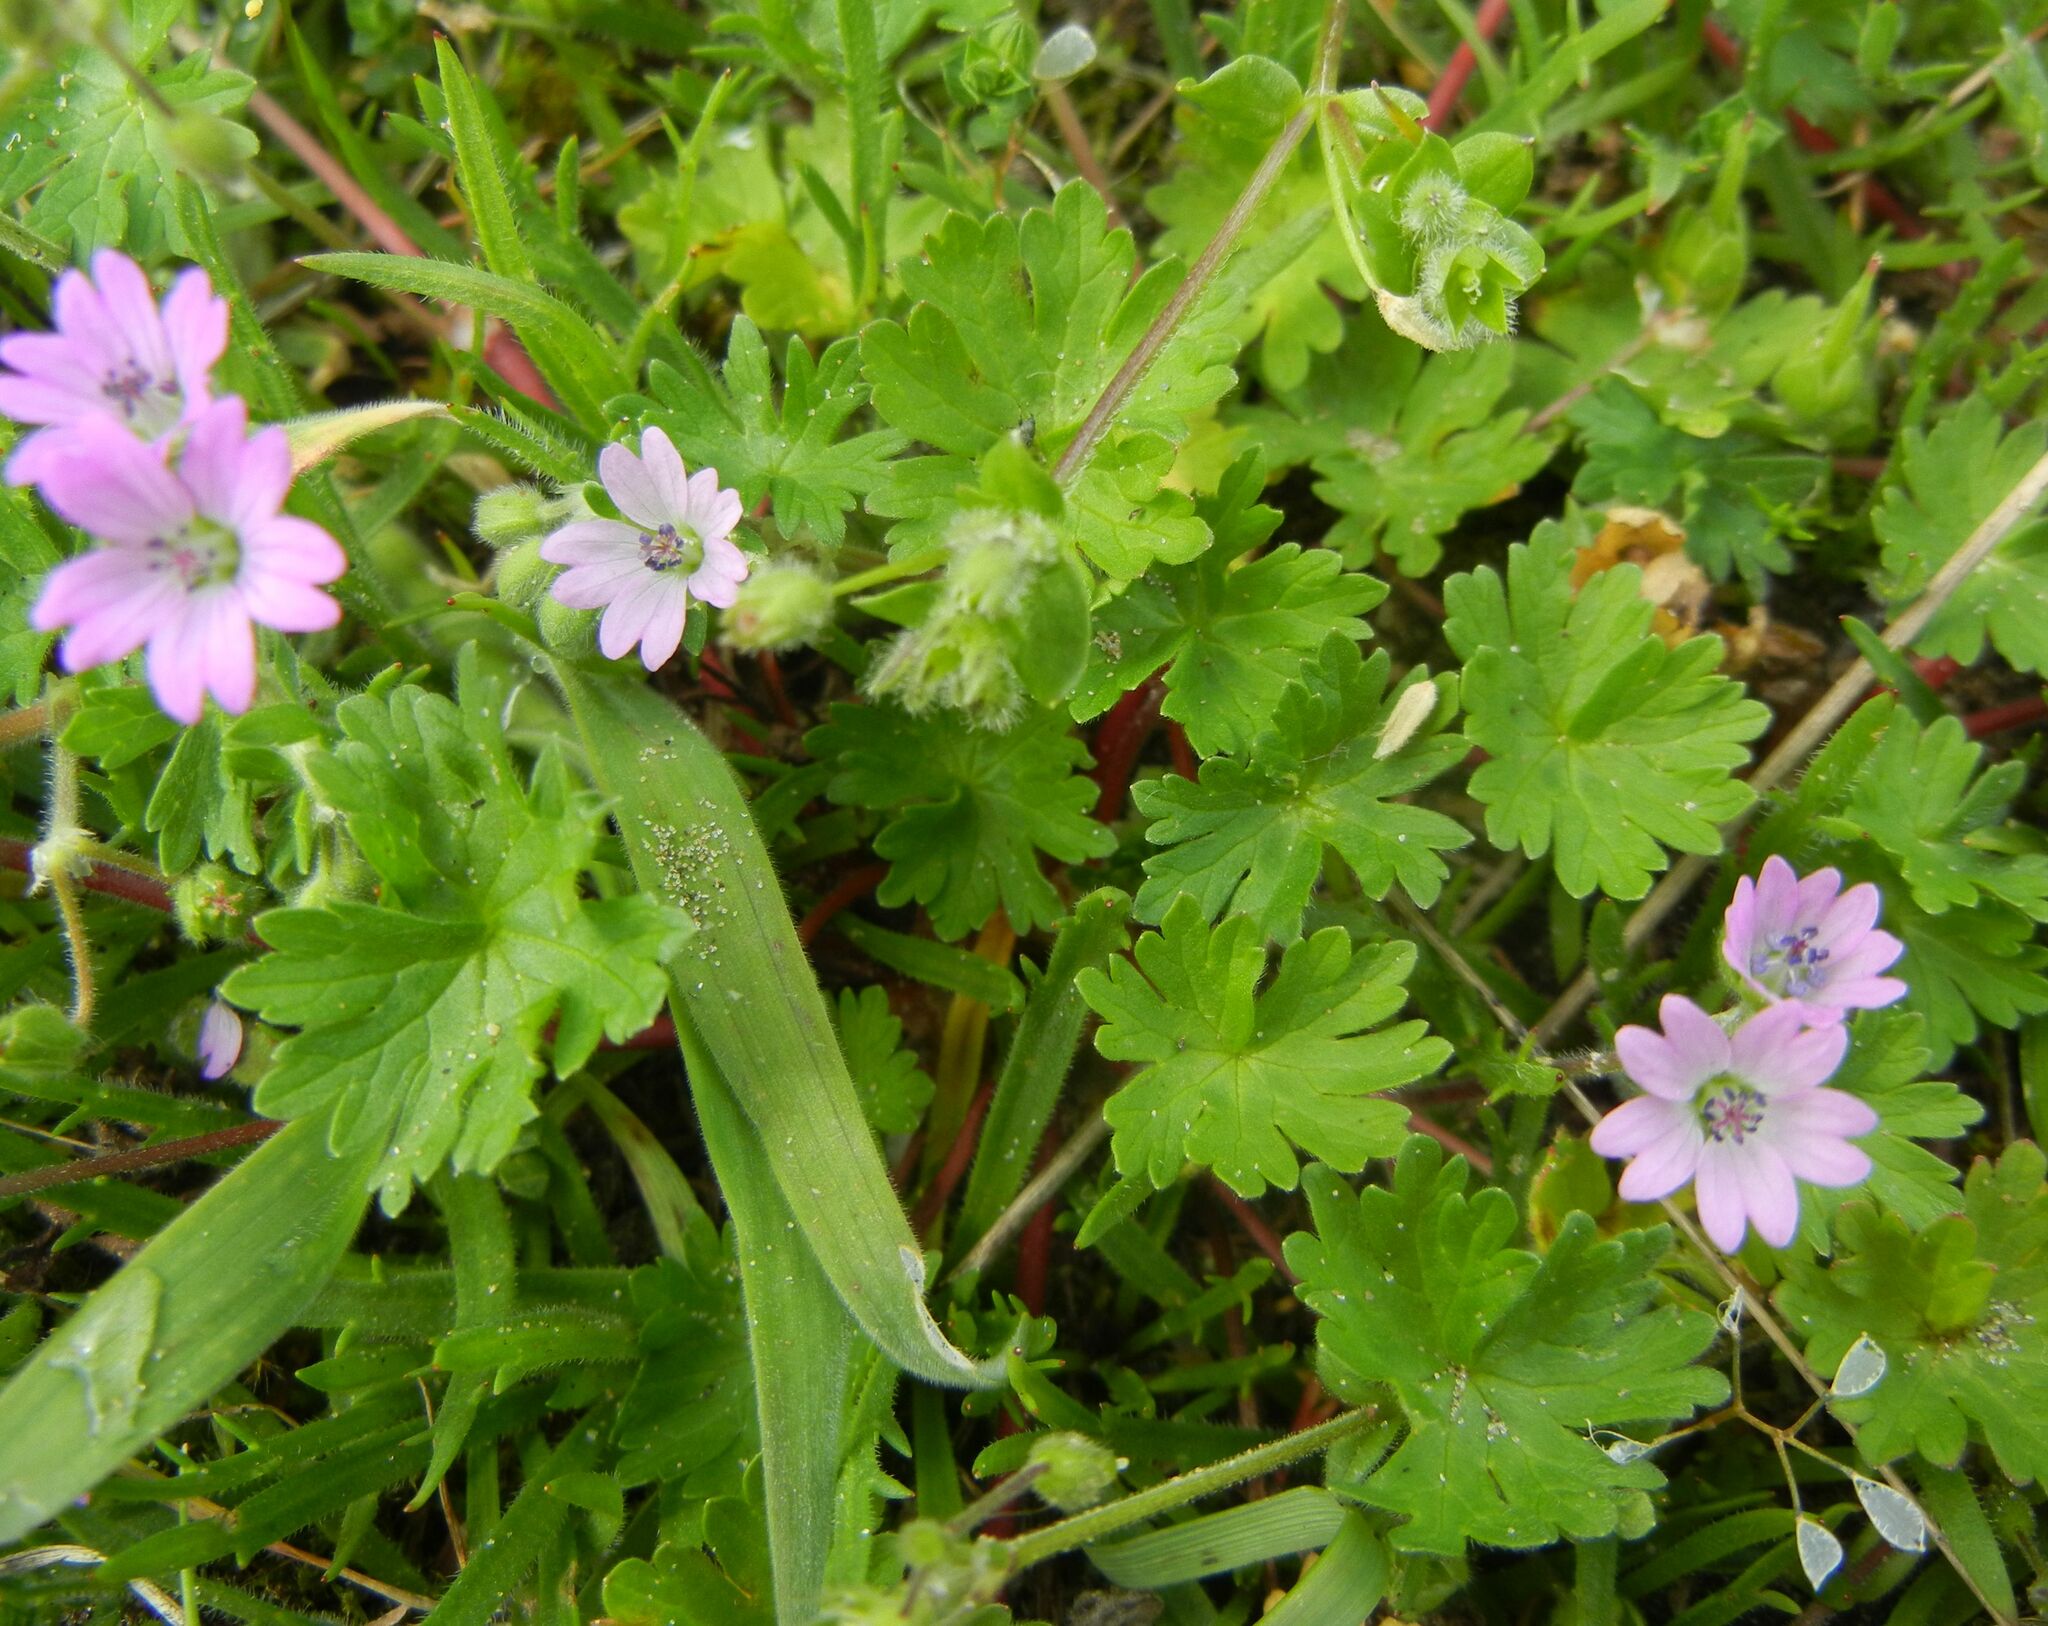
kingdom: Plantae
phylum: Tracheophyta
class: Magnoliopsida
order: Geraniales
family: Geraniaceae
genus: Geranium
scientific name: Geranium molle
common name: Dove's-foot crane's-bill
